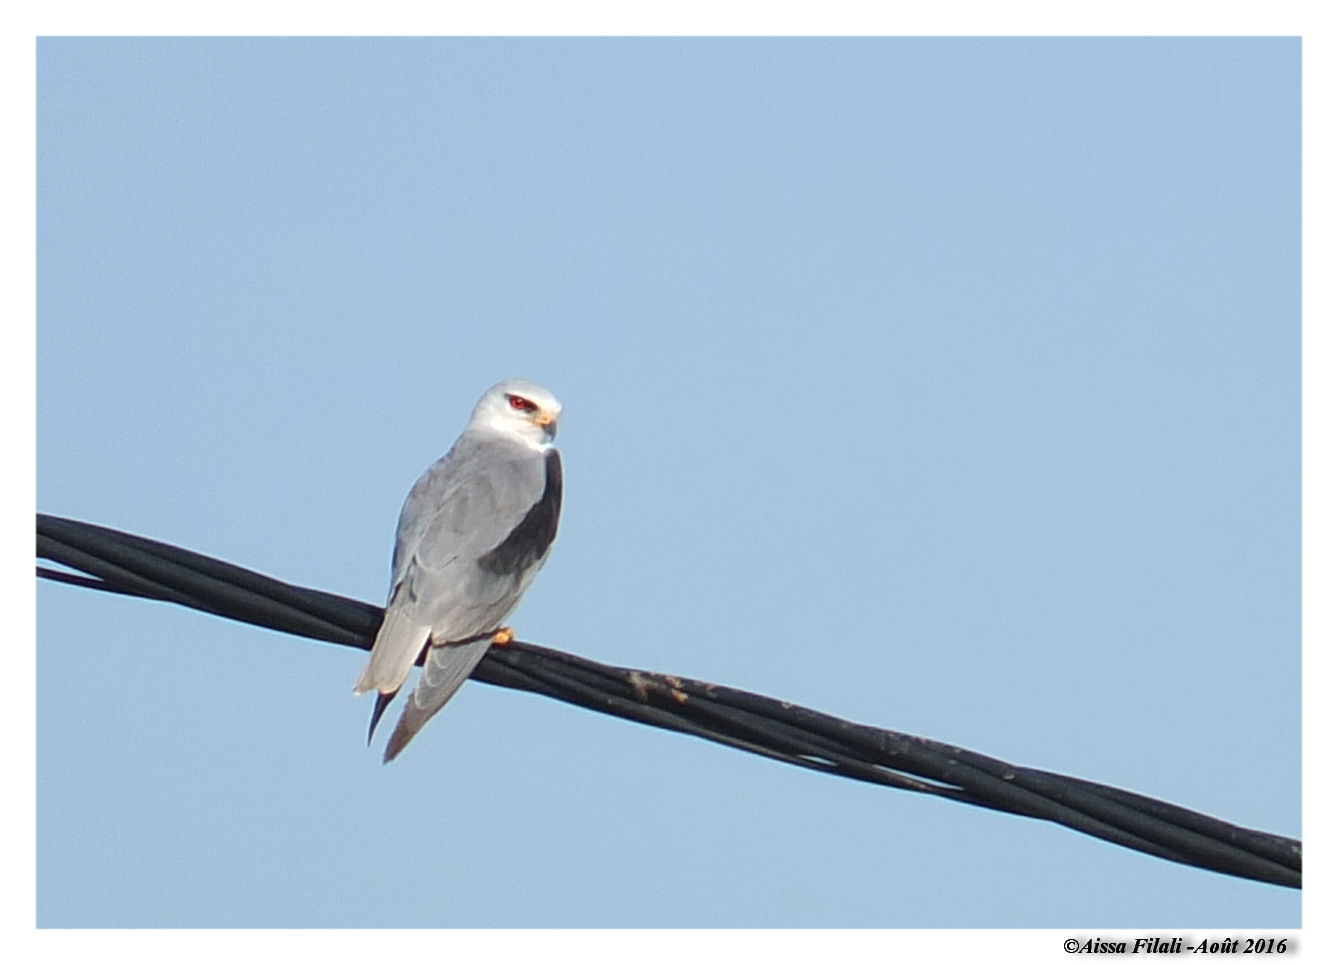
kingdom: Animalia
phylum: Chordata
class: Aves
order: Accipitriformes
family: Accipitridae
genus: Elanus
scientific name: Elanus caeruleus
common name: Black-winged kite
